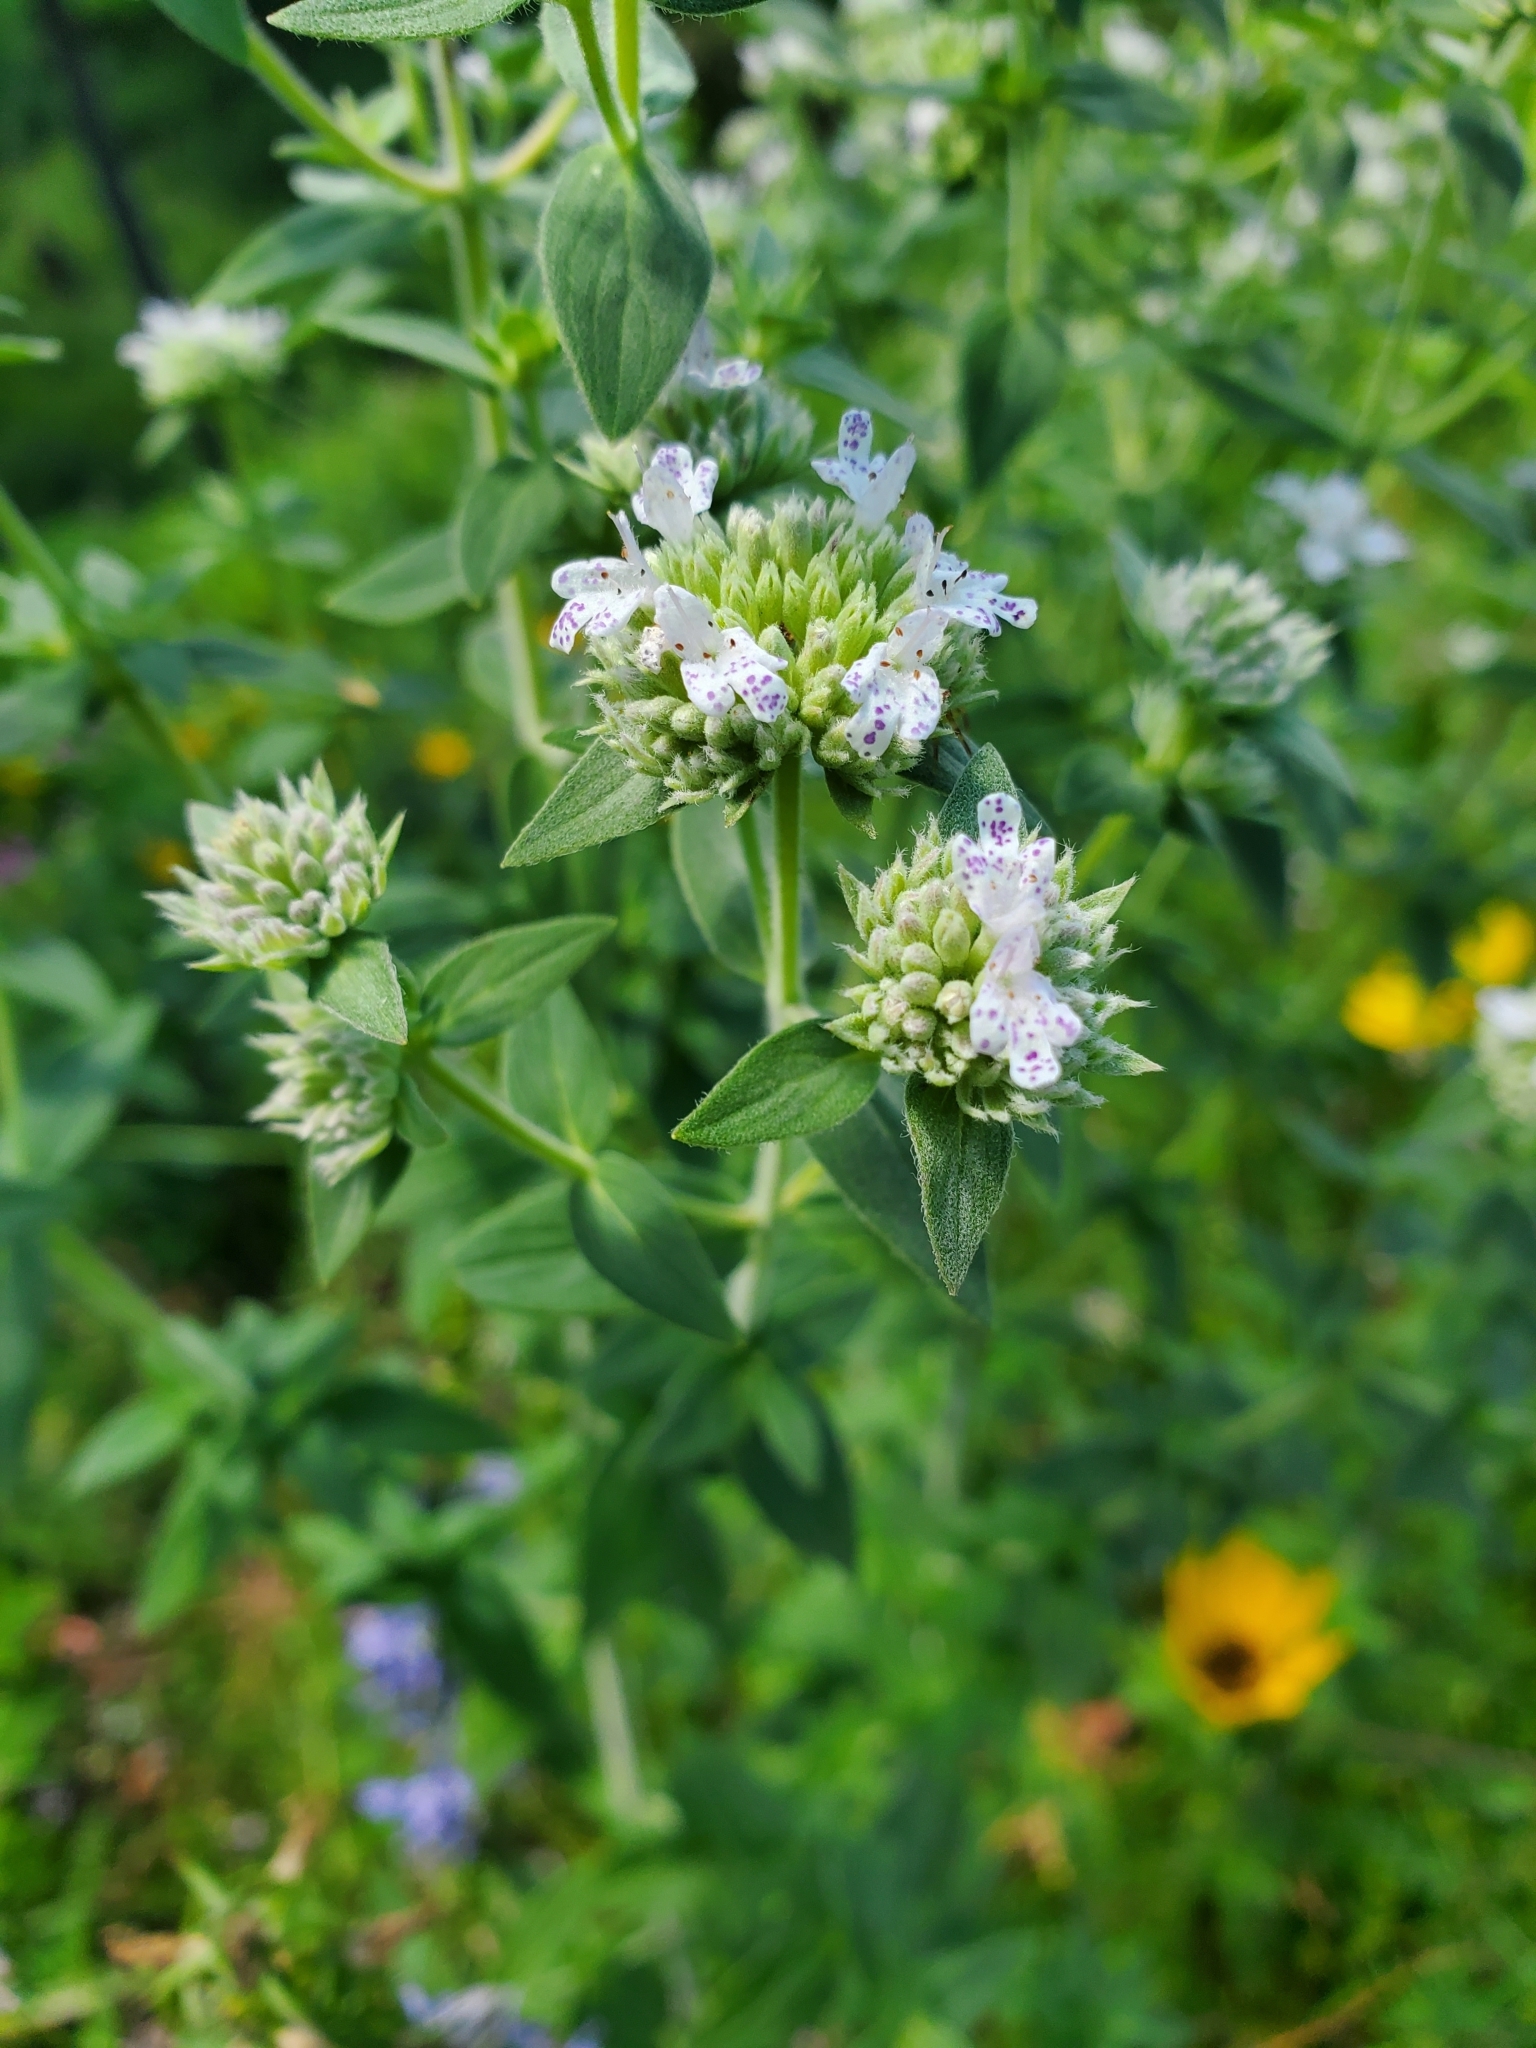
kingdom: Plantae
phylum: Tracheophyta
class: Magnoliopsida
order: Lamiales
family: Lamiaceae
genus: Pycnanthemum
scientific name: Pycnanthemum virginianum
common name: Virginia mountain-mint
